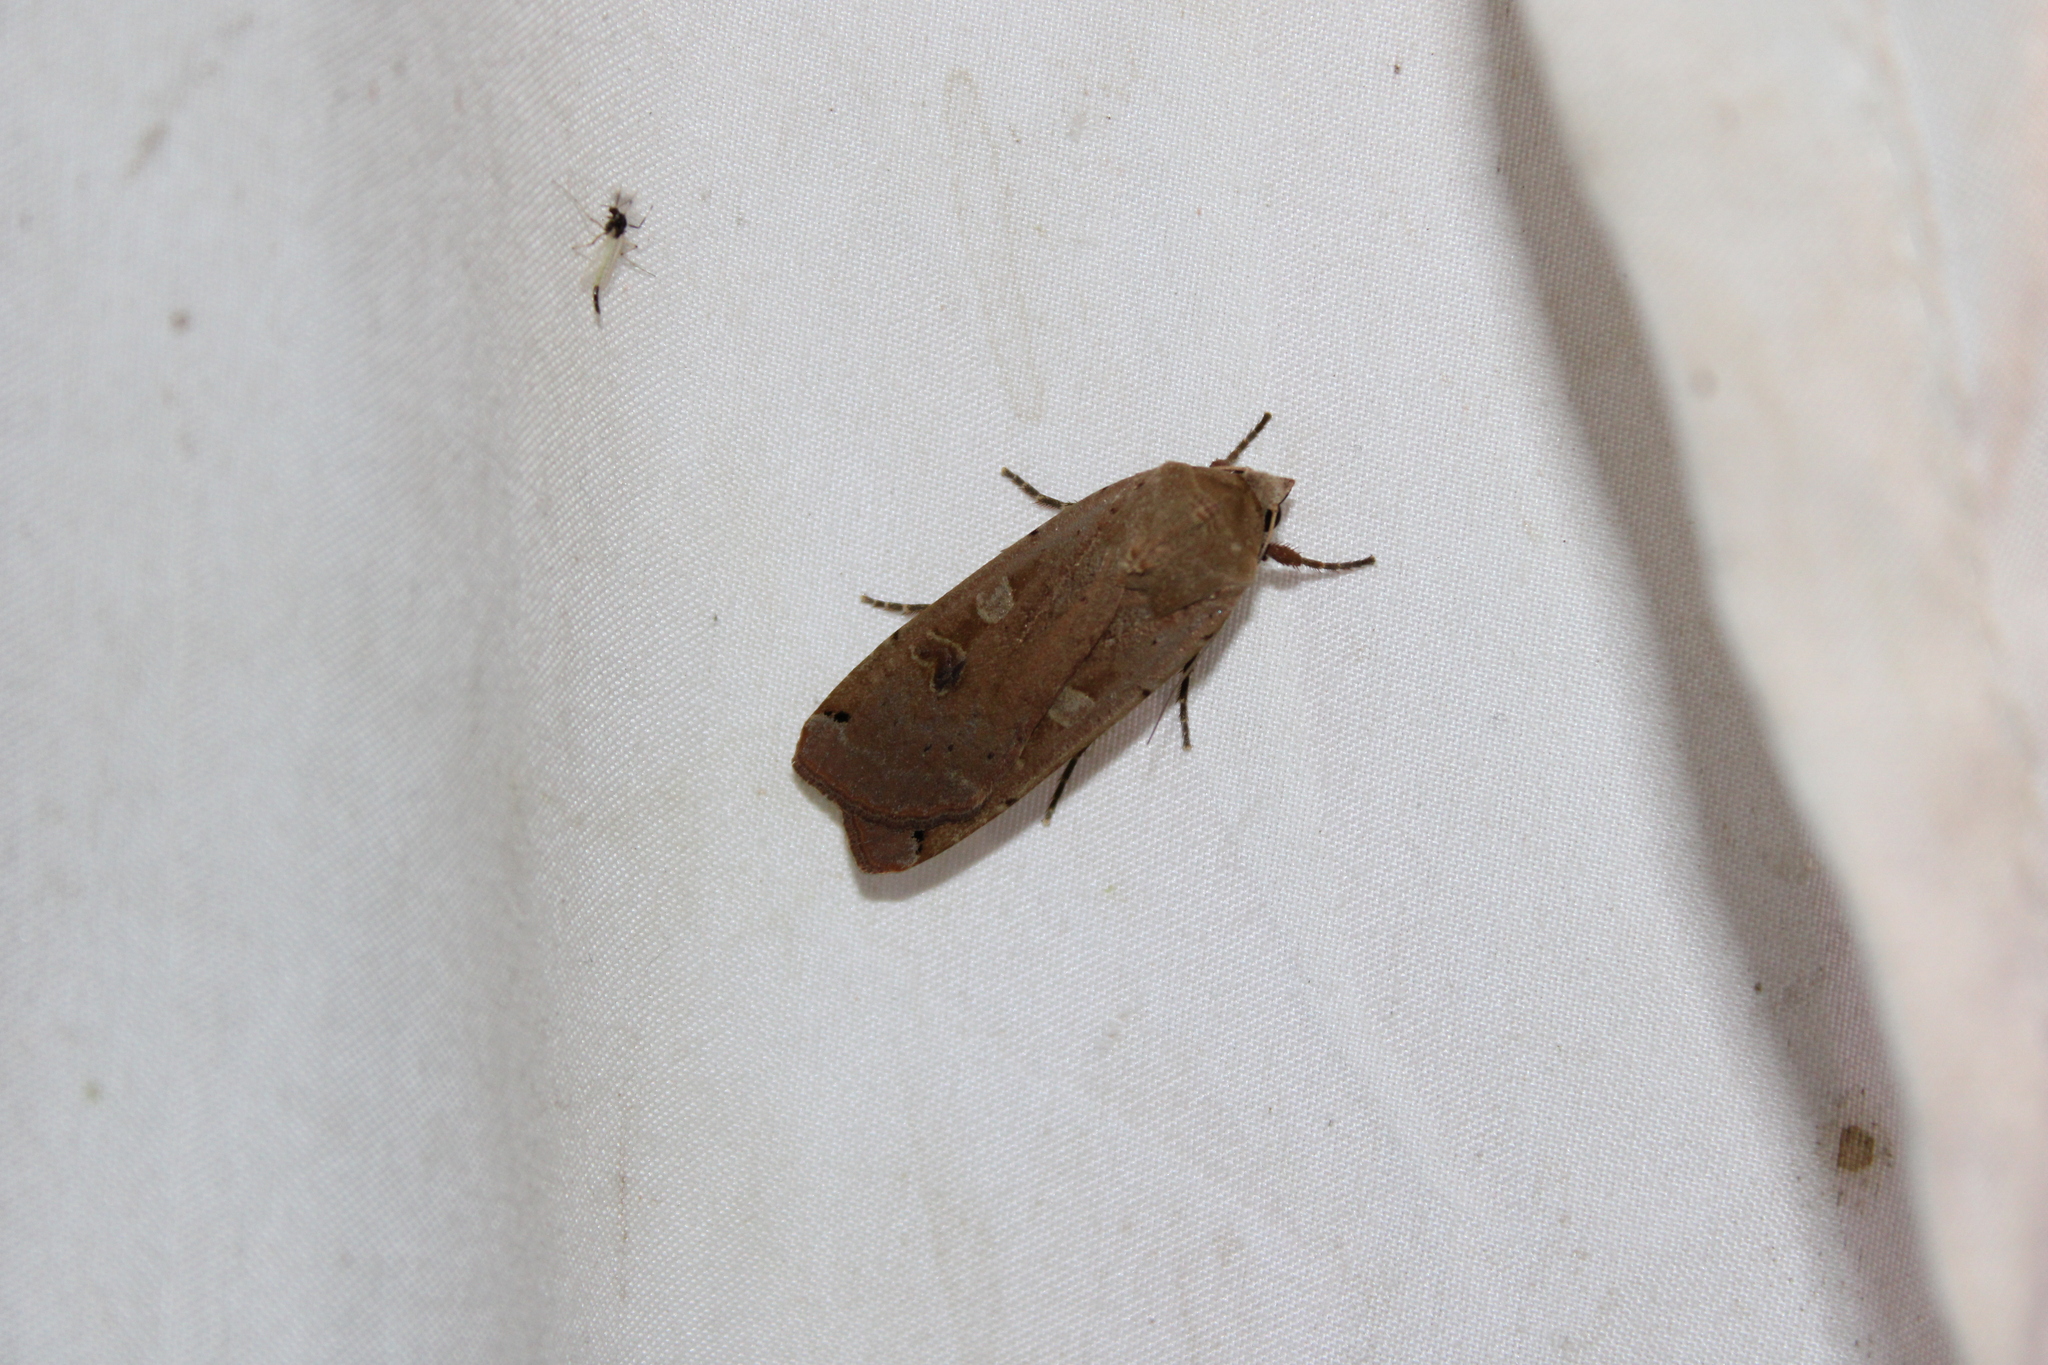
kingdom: Animalia
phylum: Arthropoda
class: Insecta
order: Lepidoptera
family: Noctuidae
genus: Noctua
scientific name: Noctua pronuba
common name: Large yellow underwing
